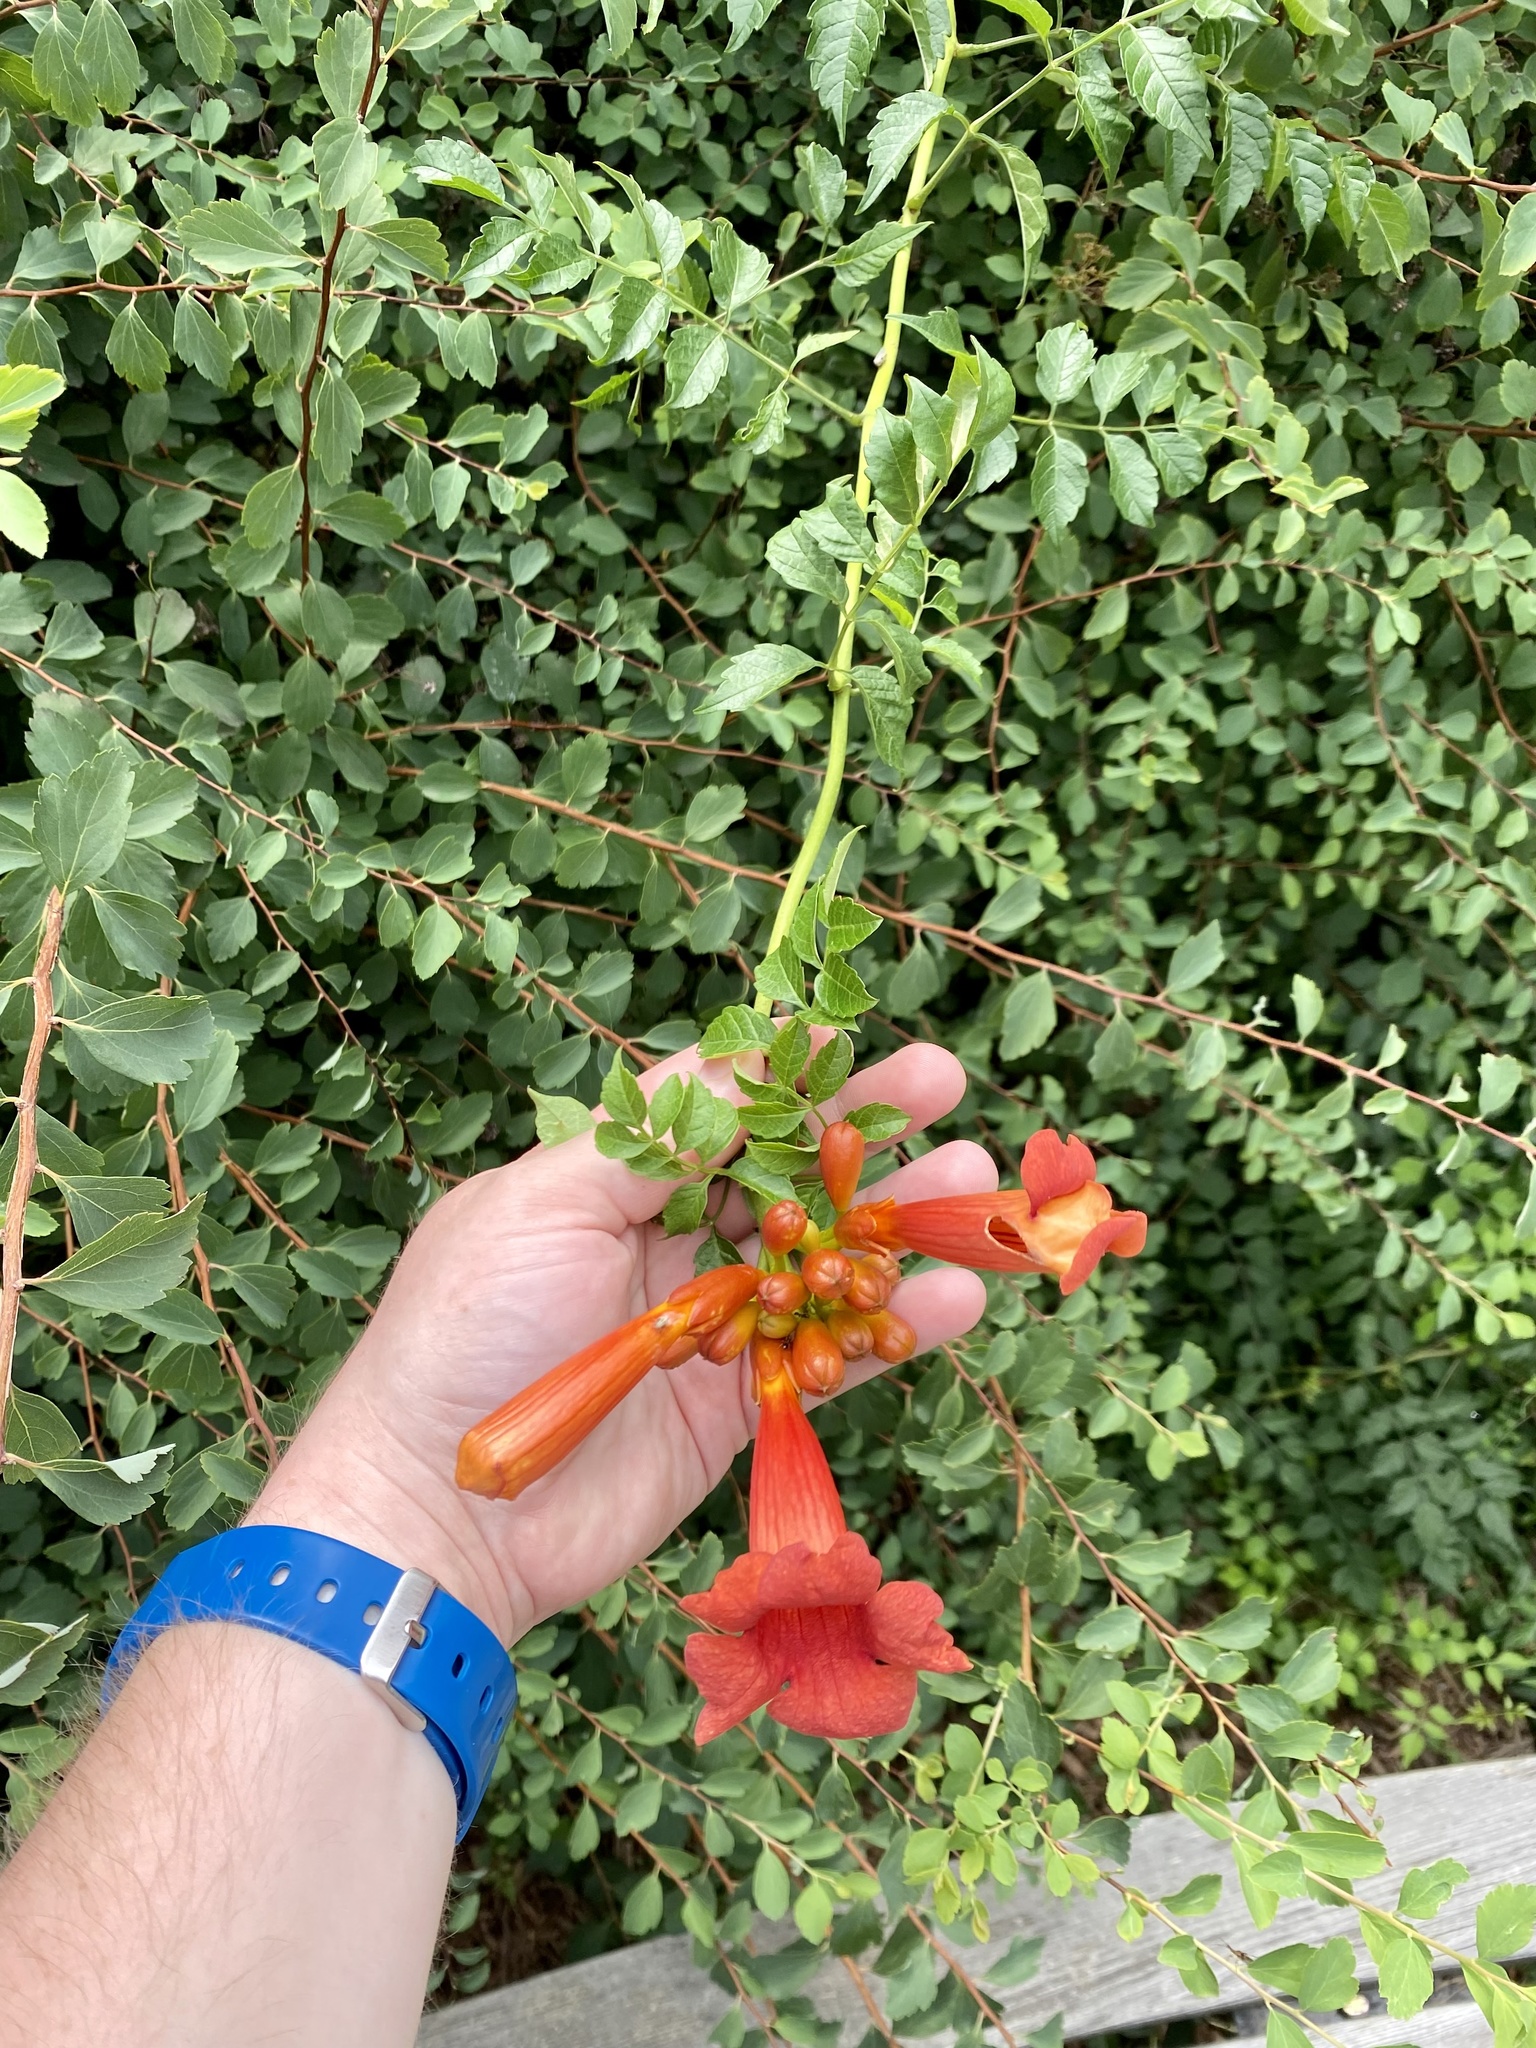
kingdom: Plantae
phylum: Tracheophyta
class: Magnoliopsida
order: Lamiales
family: Bignoniaceae
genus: Campsis
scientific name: Campsis radicans
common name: Trumpet-creeper
